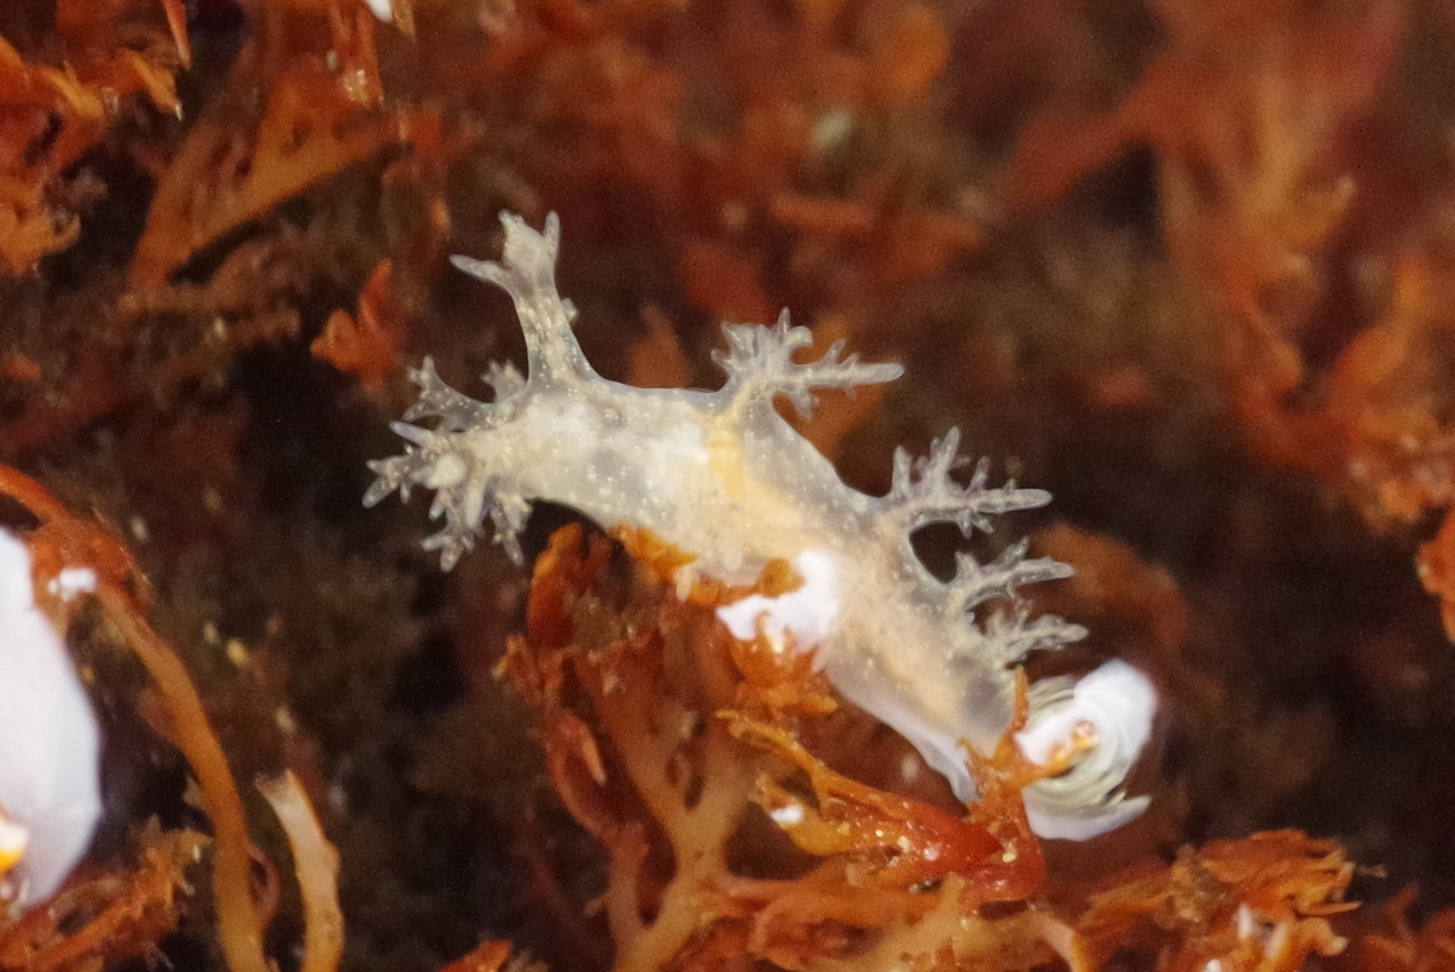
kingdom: Animalia
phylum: Mollusca
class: Gastropoda
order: Nudibranchia
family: Dendronotidae
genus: Dendronotus
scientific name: Dendronotus venustus
